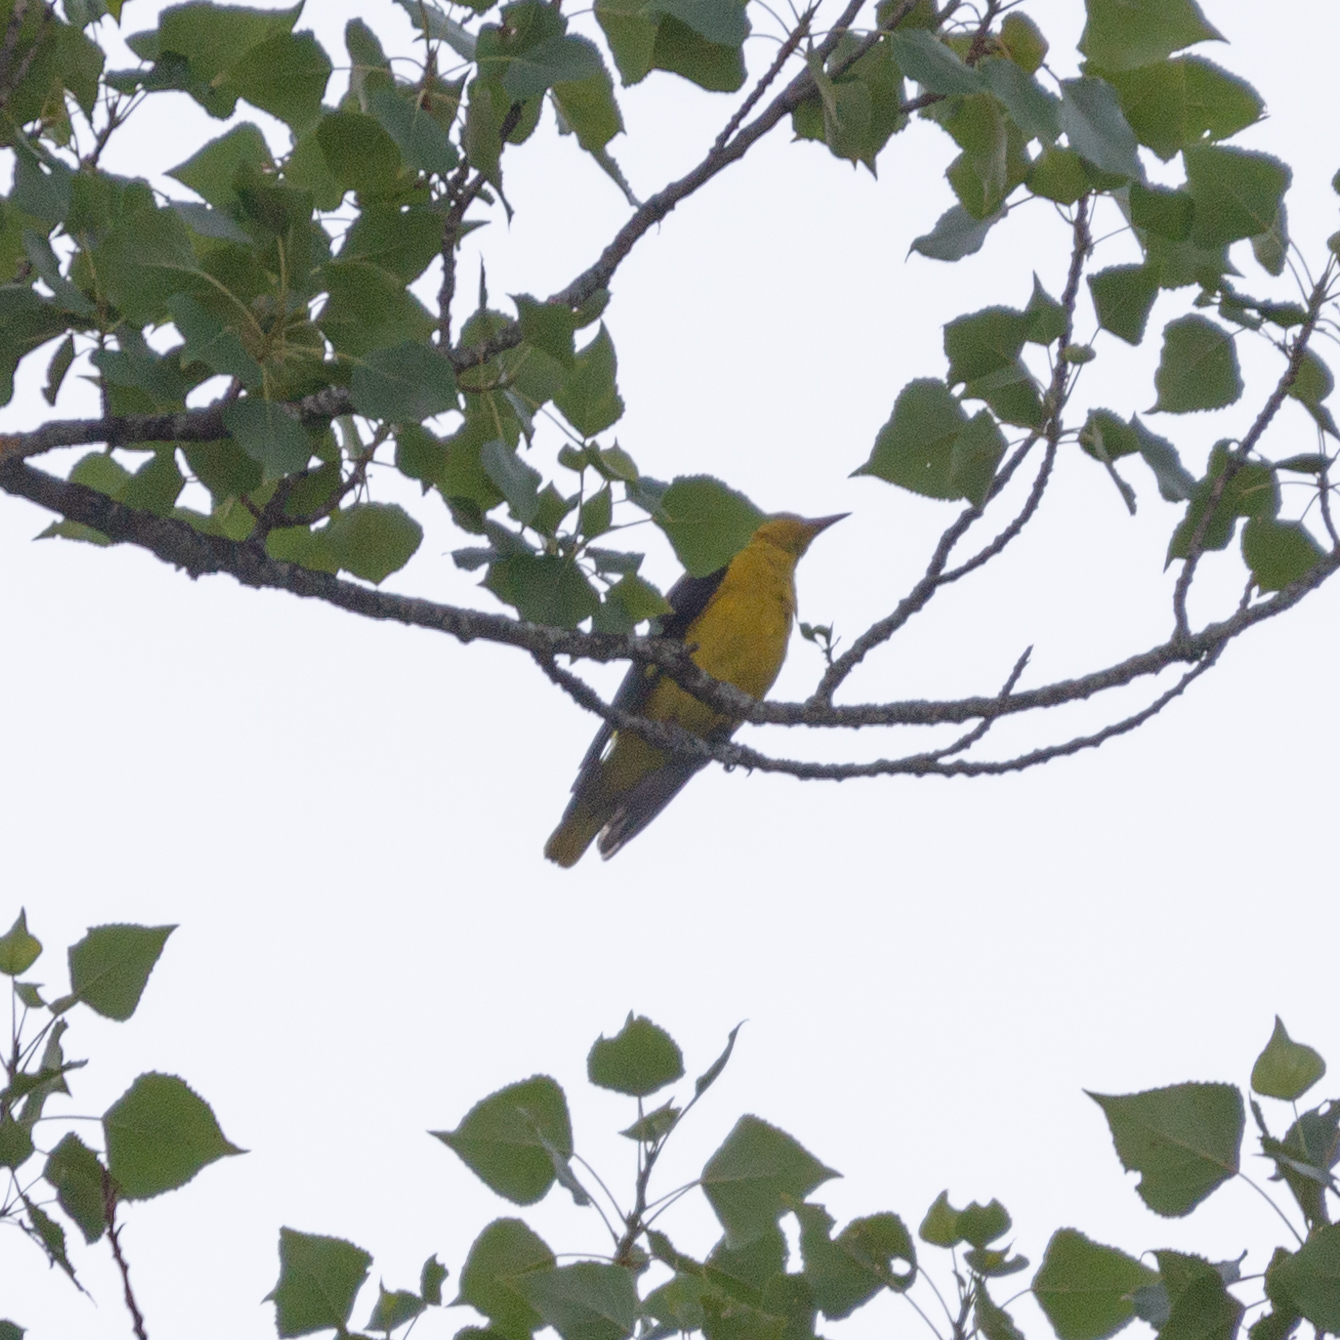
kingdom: Animalia
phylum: Chordata
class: Aves
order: Passeriformes
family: Oriolidae
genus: Oriolus
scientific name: Oriolus oriolus
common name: Eurasian golden oriole
